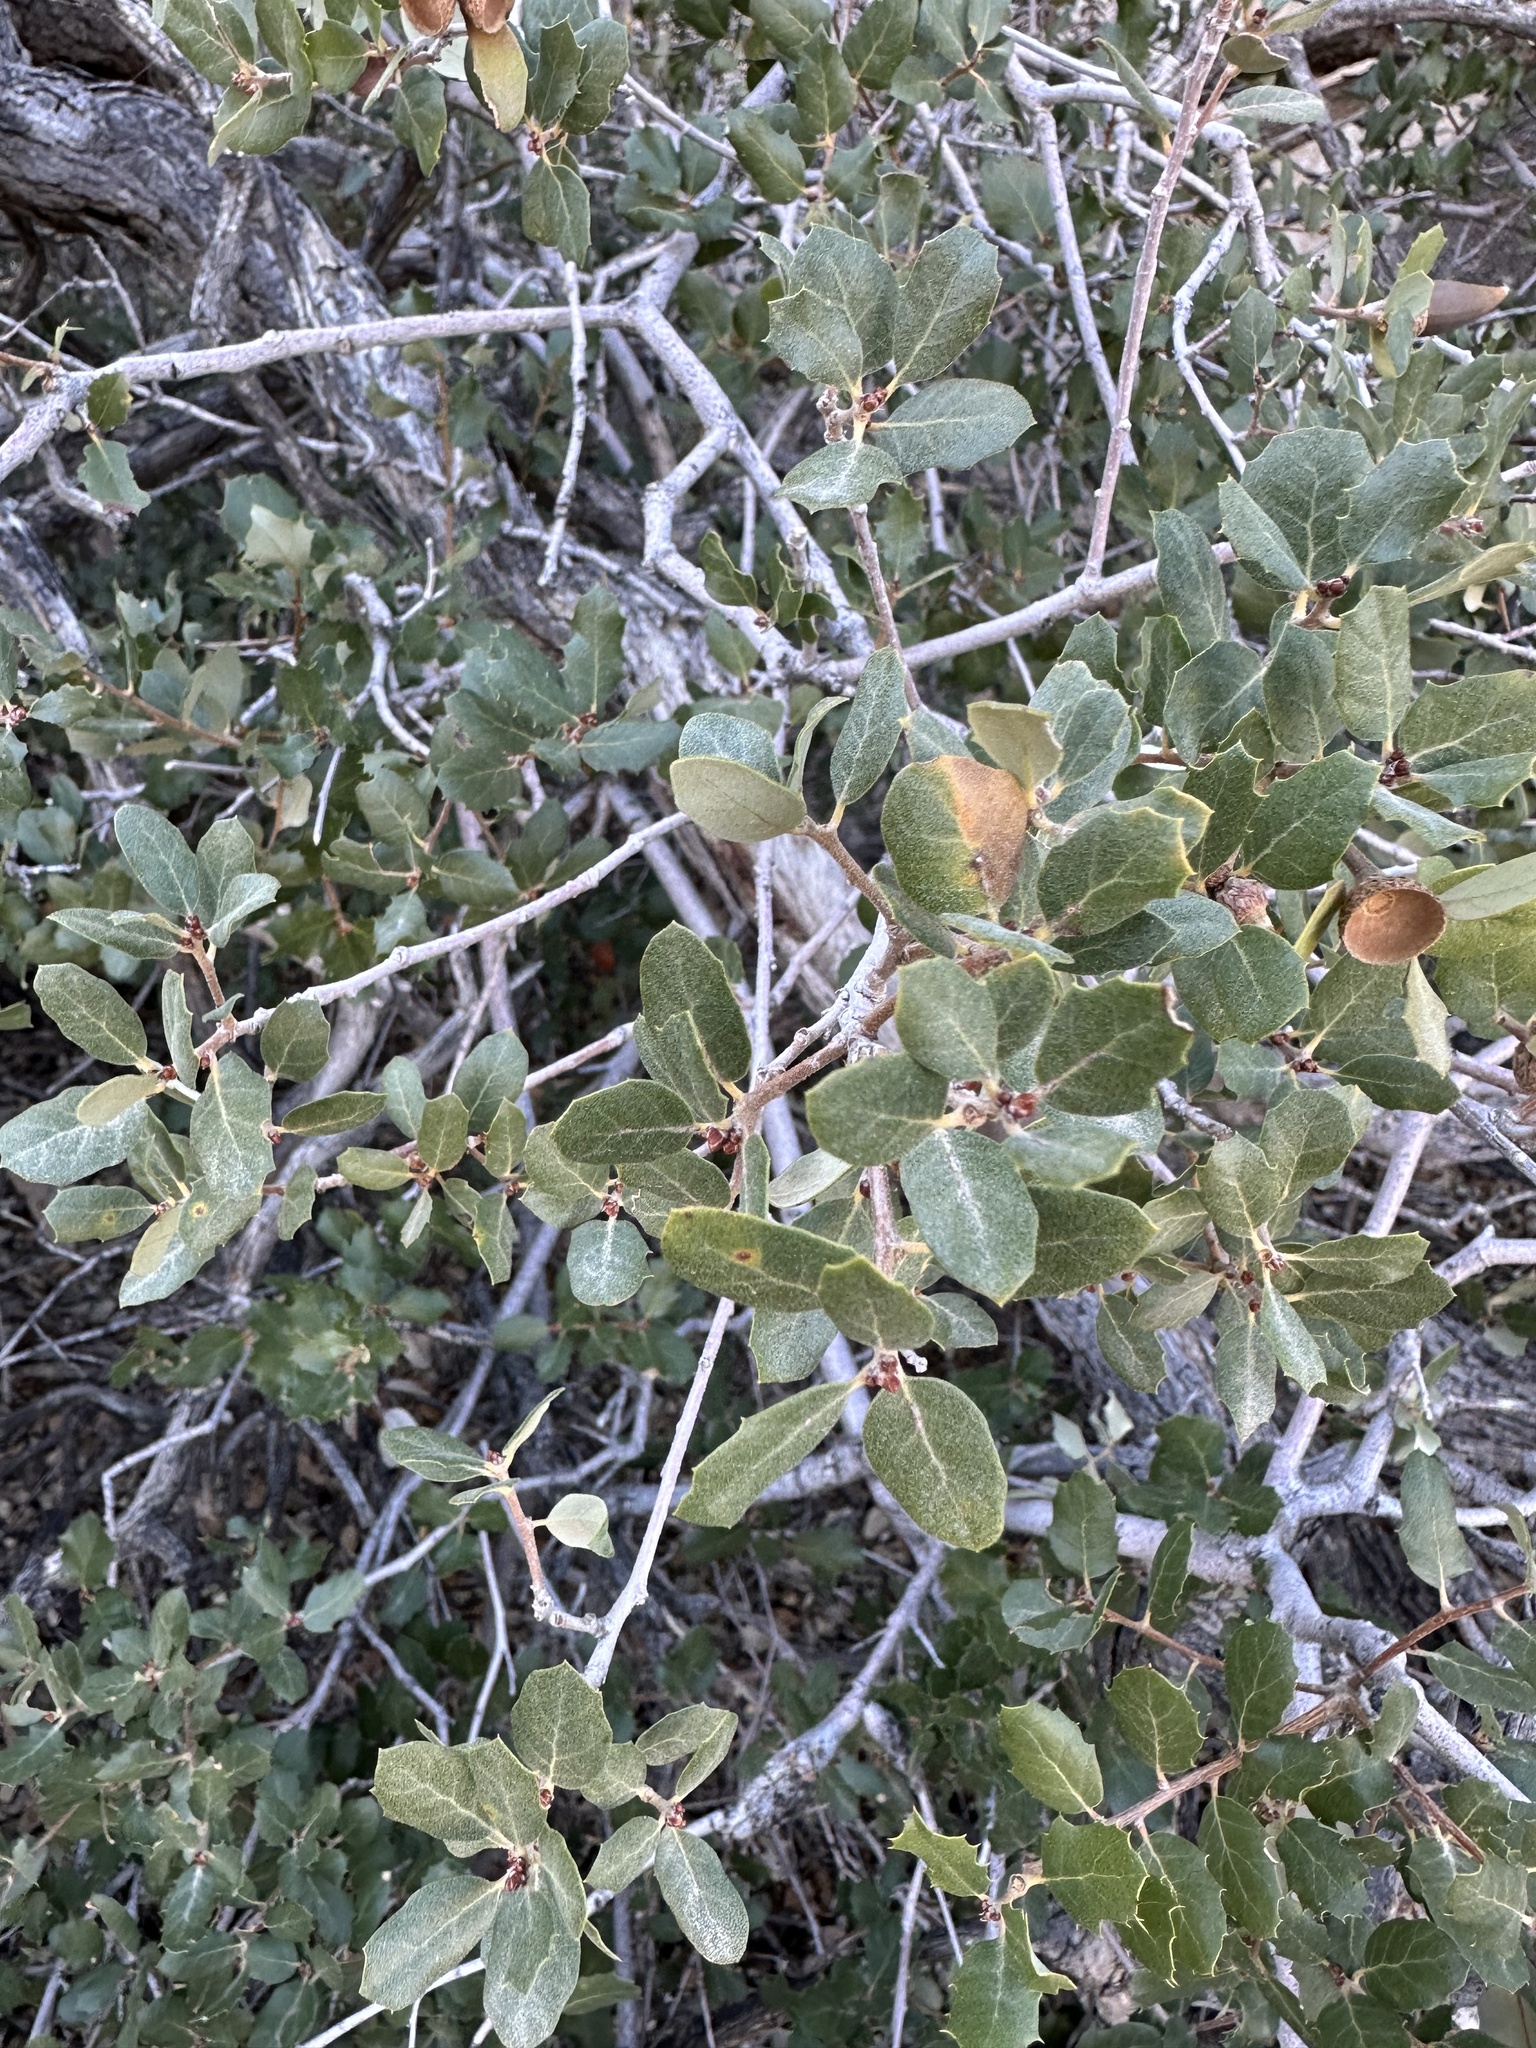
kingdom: Plantae
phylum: Tracheophyta
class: Magnoliopsida
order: Fagales
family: Fagaceae
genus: Quercus
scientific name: Quercus cornelius-mulleri
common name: Muller oak
